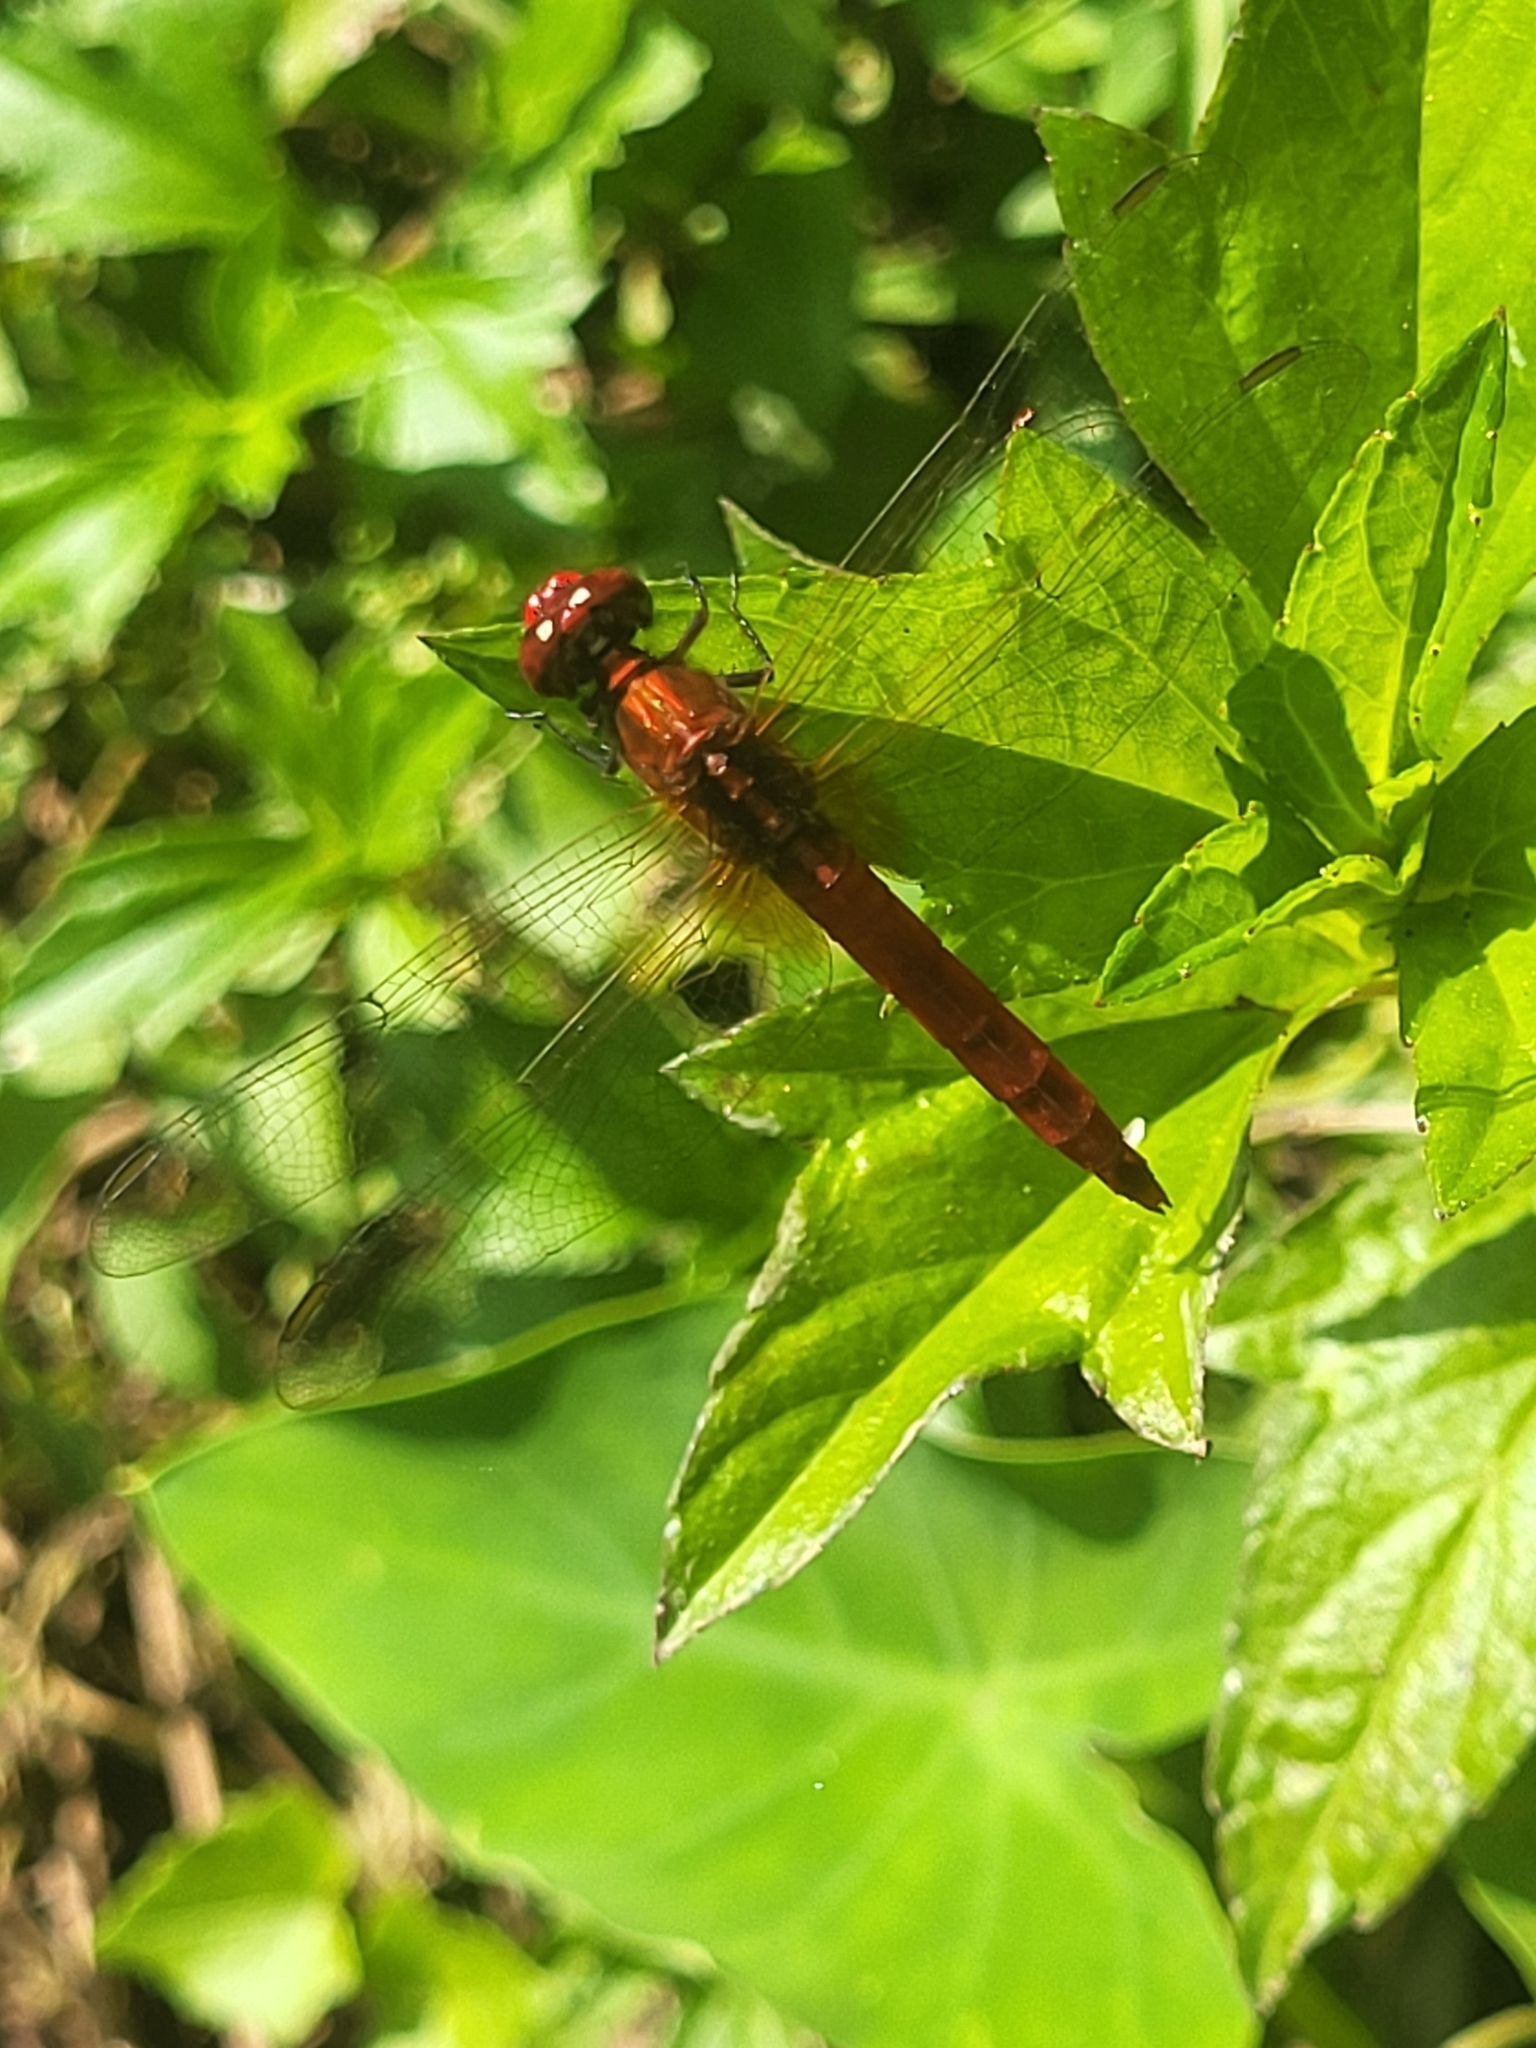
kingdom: Animalia
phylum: Arthropoda
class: Insecta
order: Odonata
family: Libellulidae
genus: Rhodothemis
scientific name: Rhodothemis rufa
